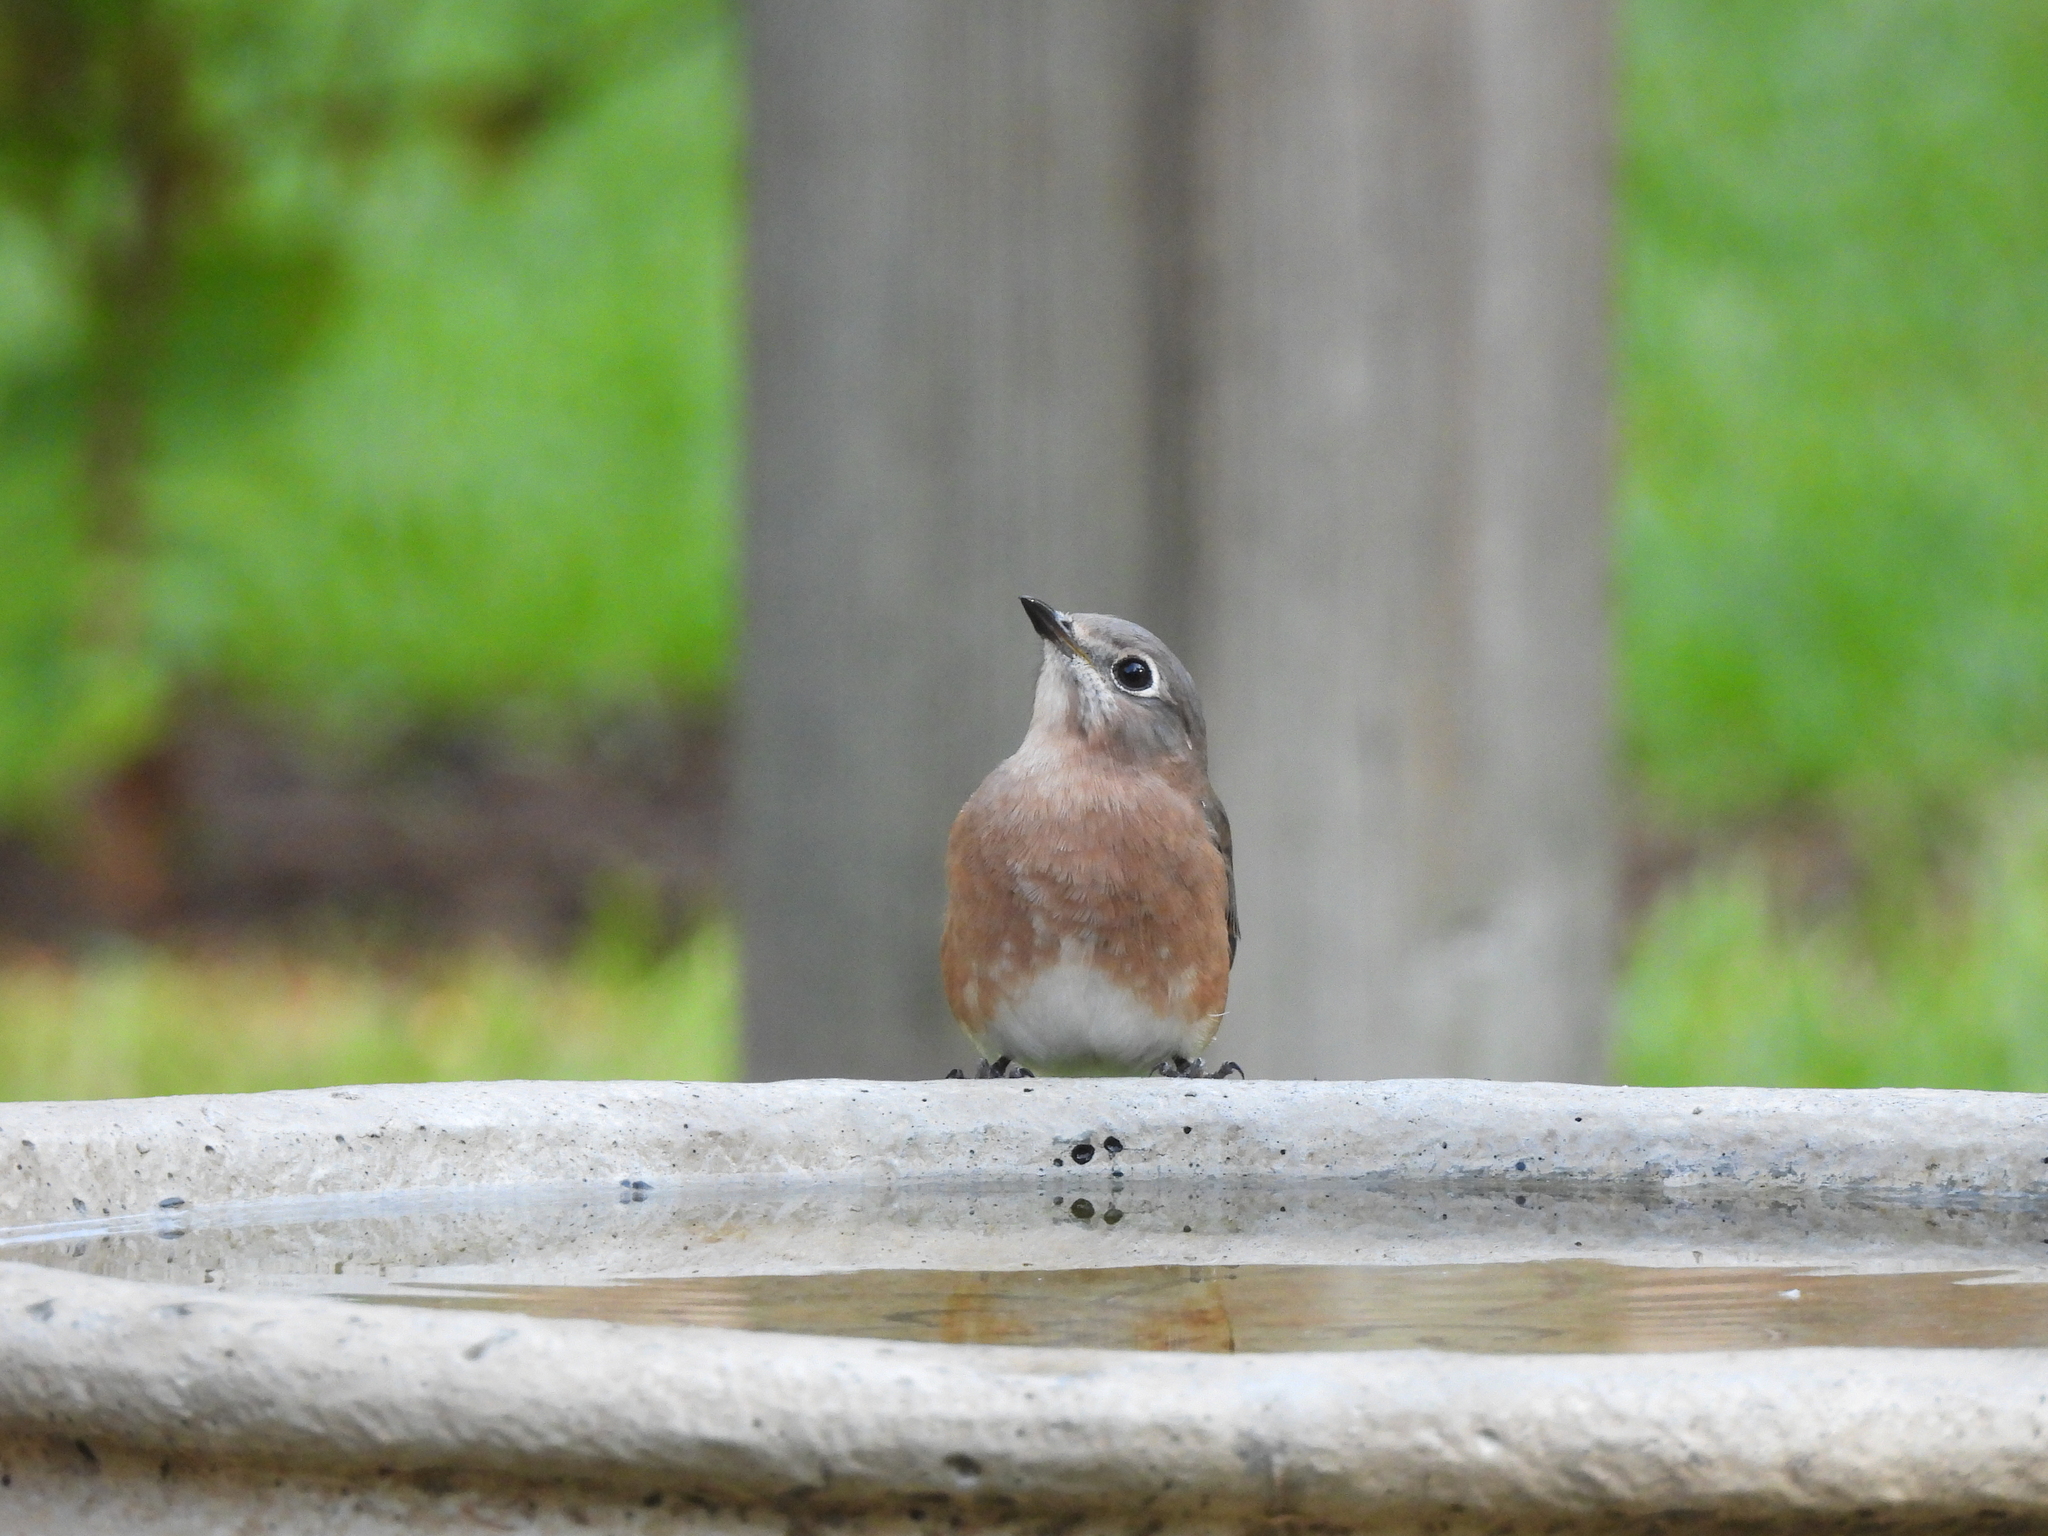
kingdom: Animalia
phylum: Chordata
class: Aves
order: Passeriformes
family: Turdidae
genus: Sialia
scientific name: Sialia sialis
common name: Eastern bluebird
